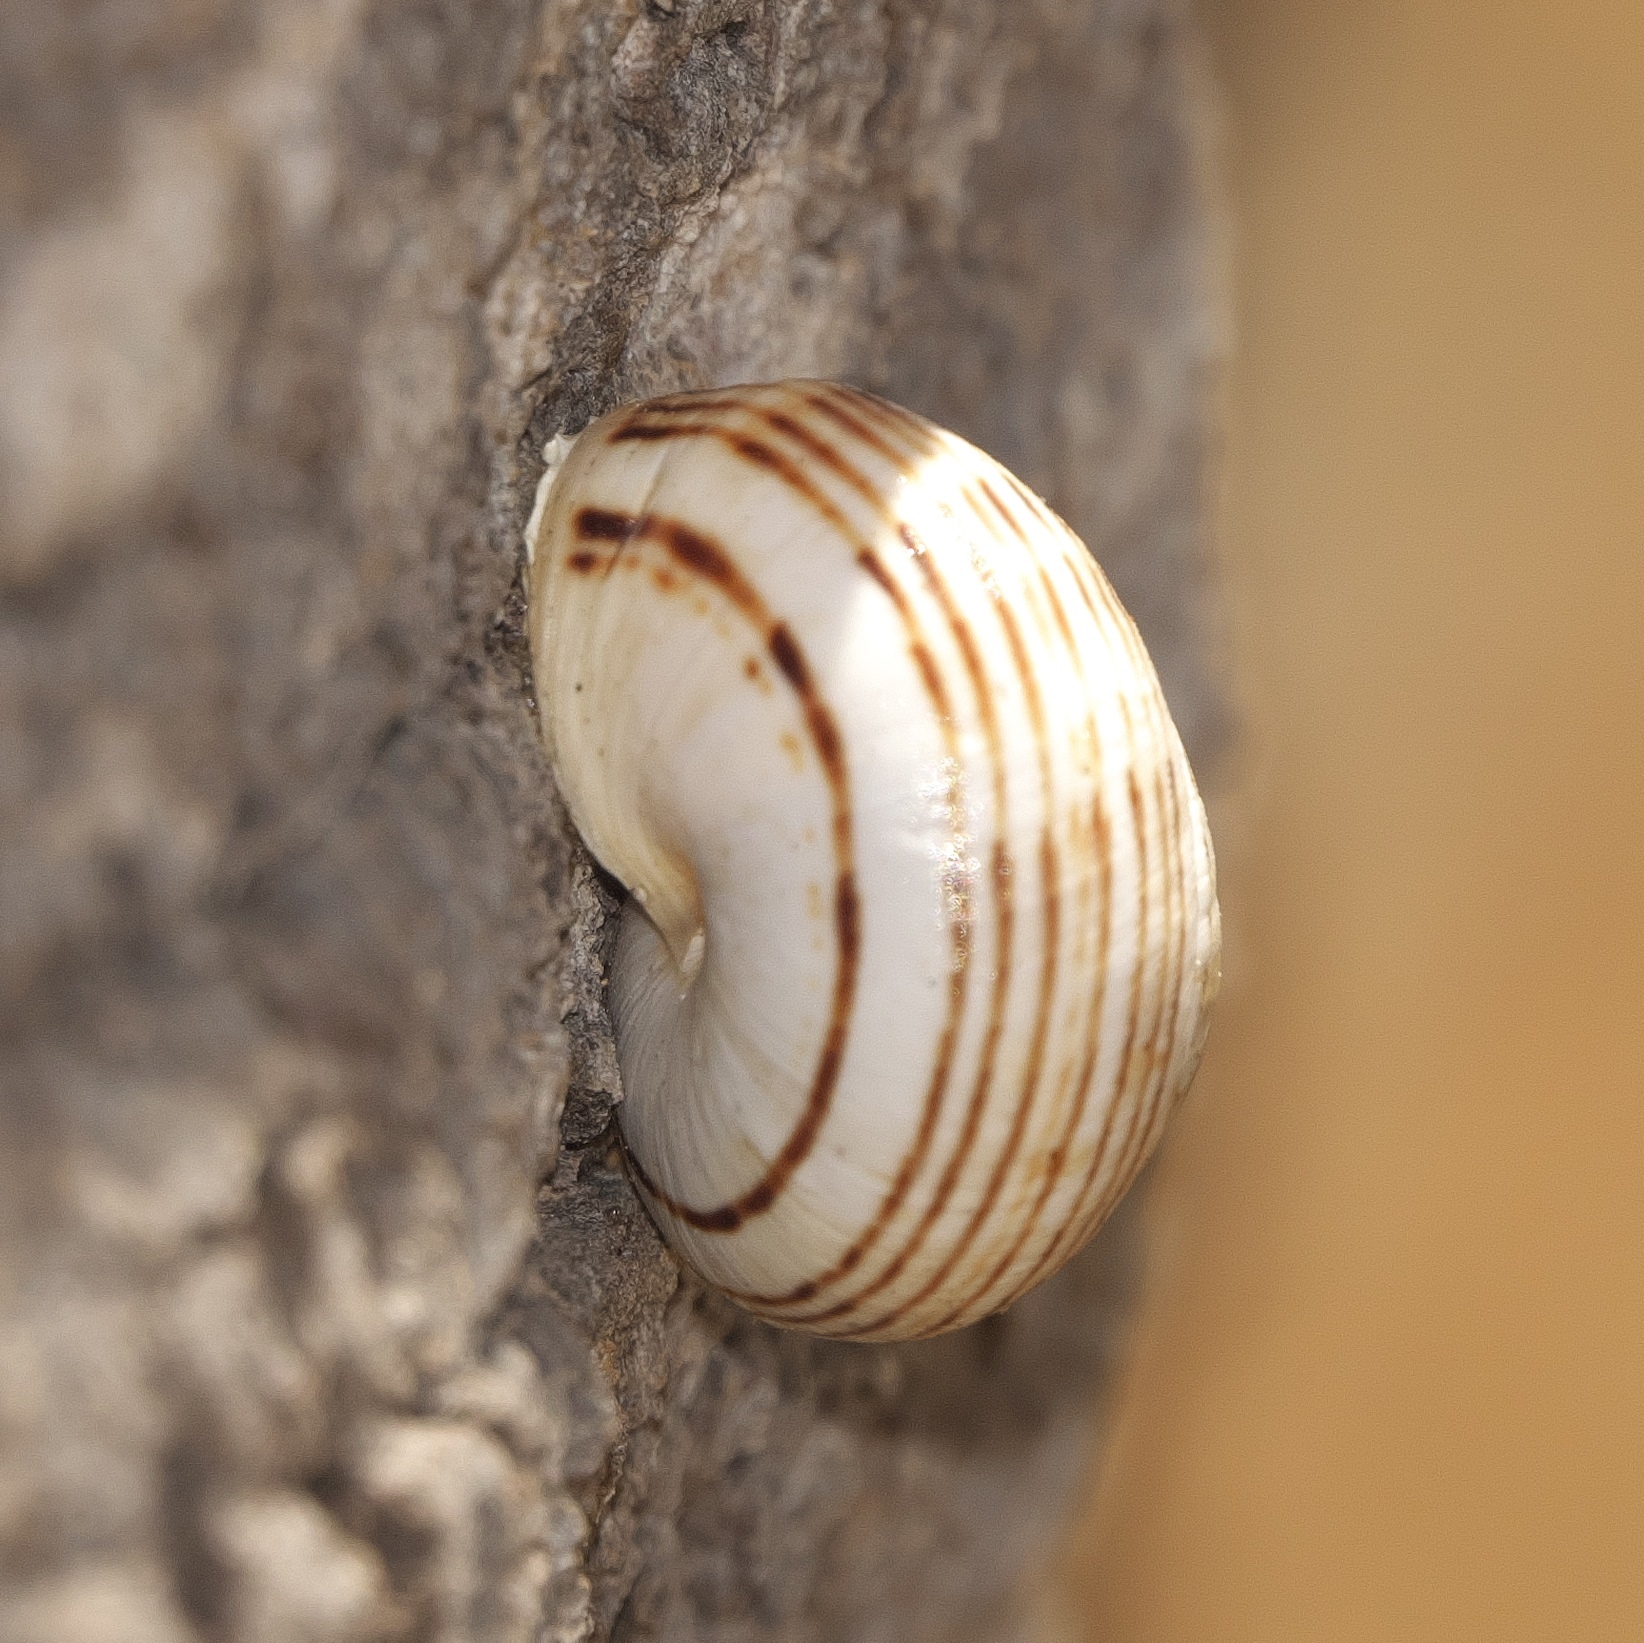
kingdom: Animalia
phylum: Mollusca
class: Gastropoda
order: Stylommatophora
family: Helicidae
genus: Theba
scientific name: Theba pisana
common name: White snail
